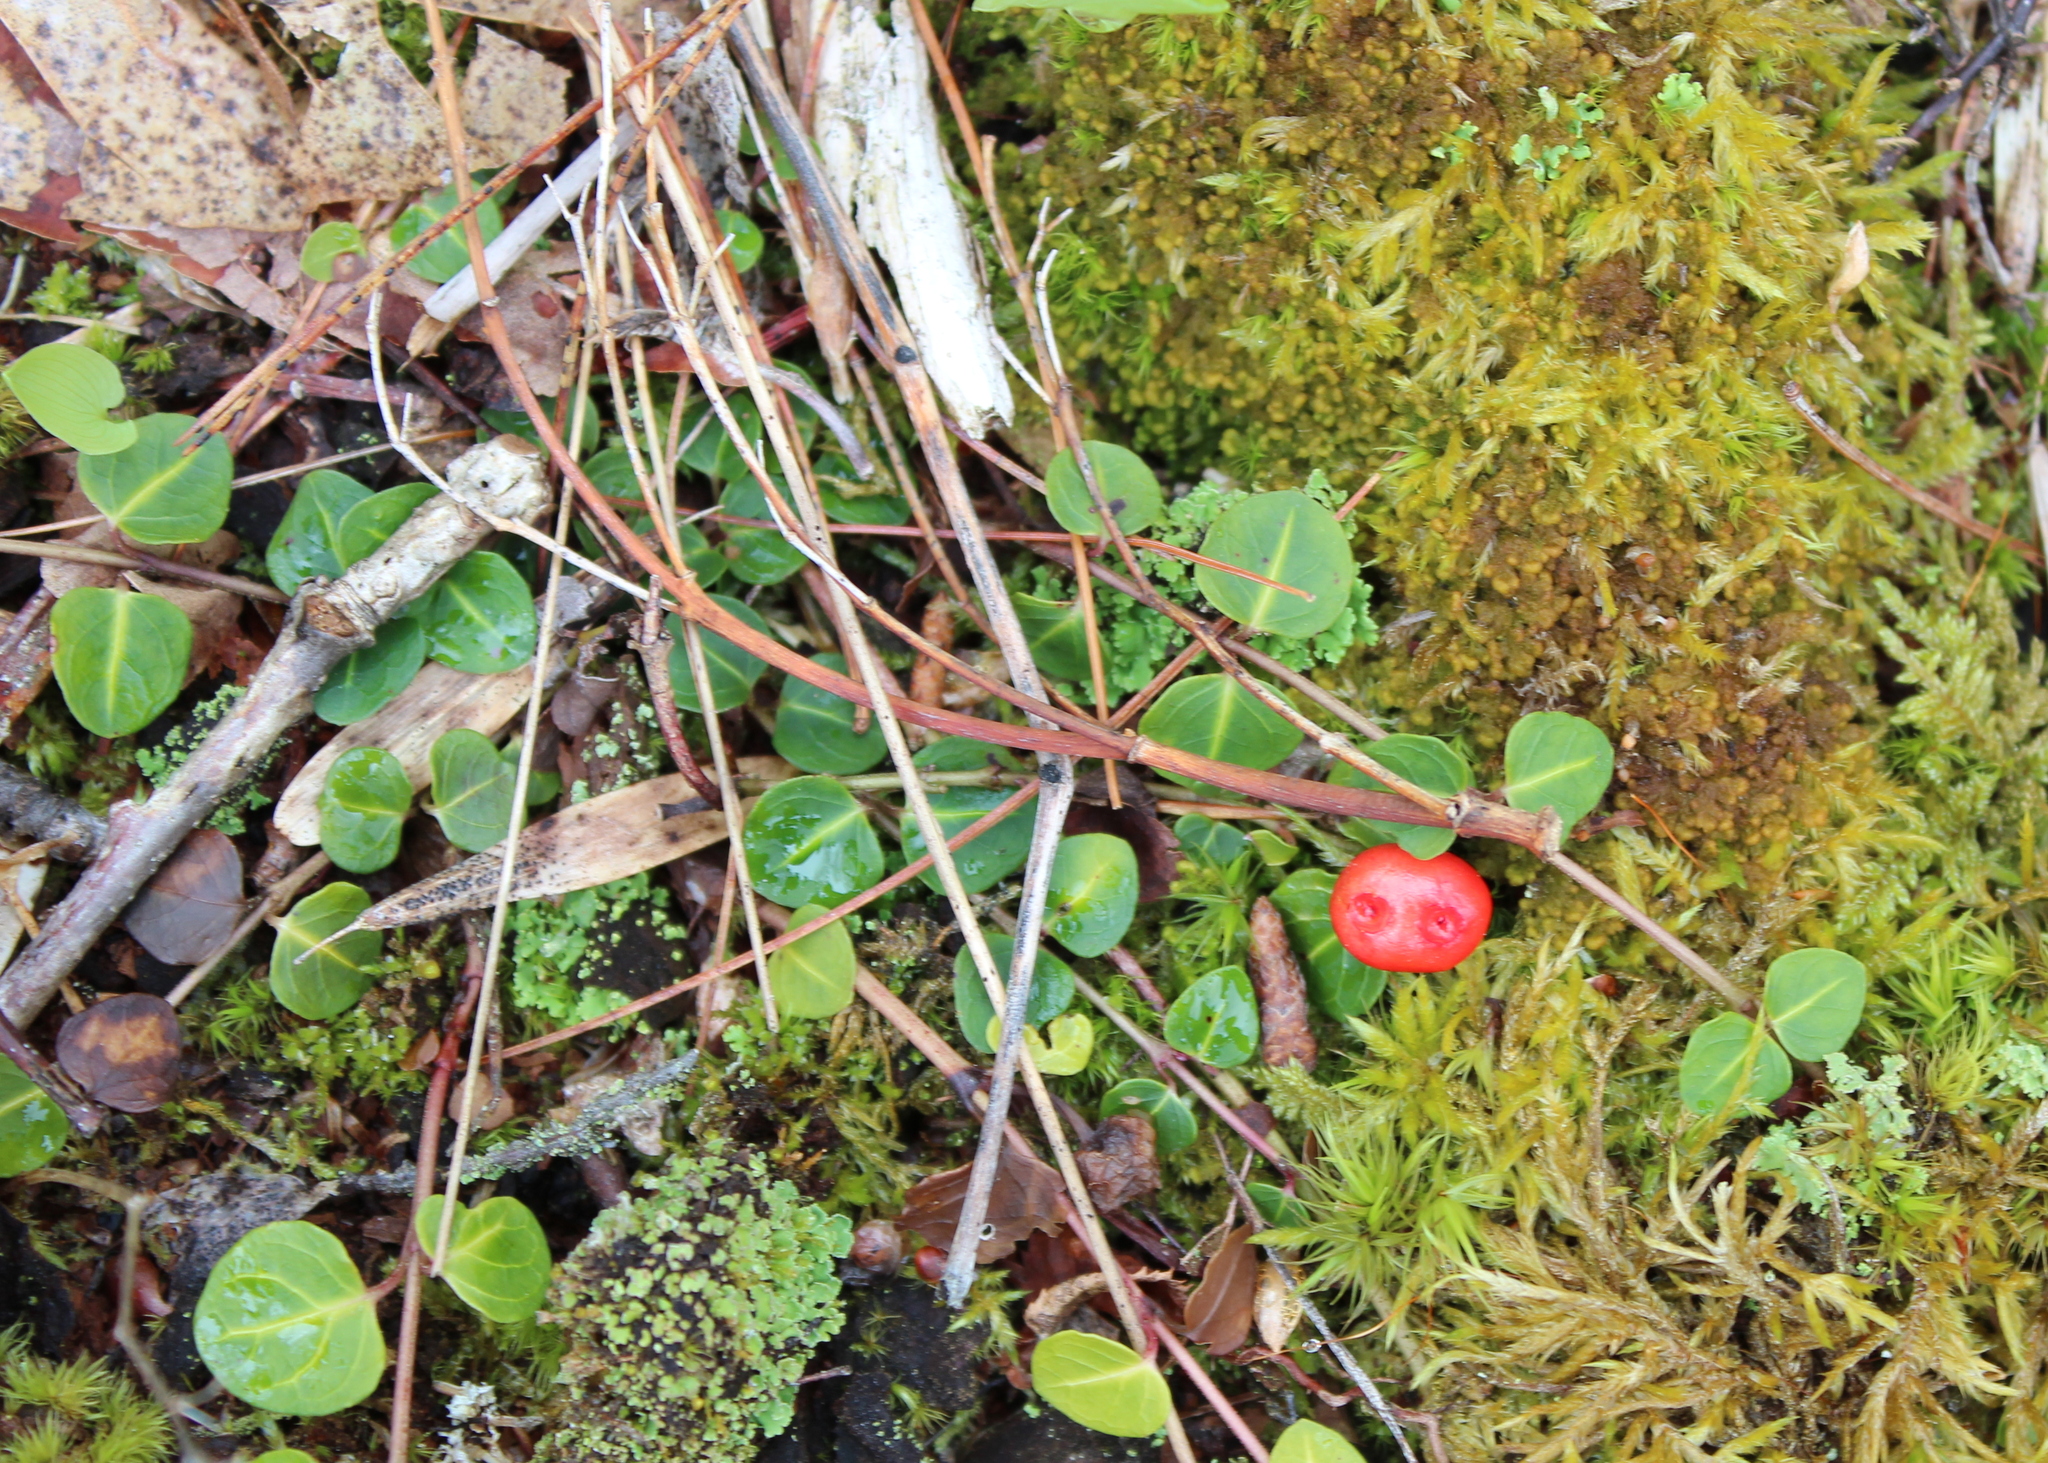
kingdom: Plantae
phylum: Tracheophyta
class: Magnoliopsida
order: Gentianales
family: Rubiaceae
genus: Mitchella
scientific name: Mitchella repens
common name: Partridge-berry
